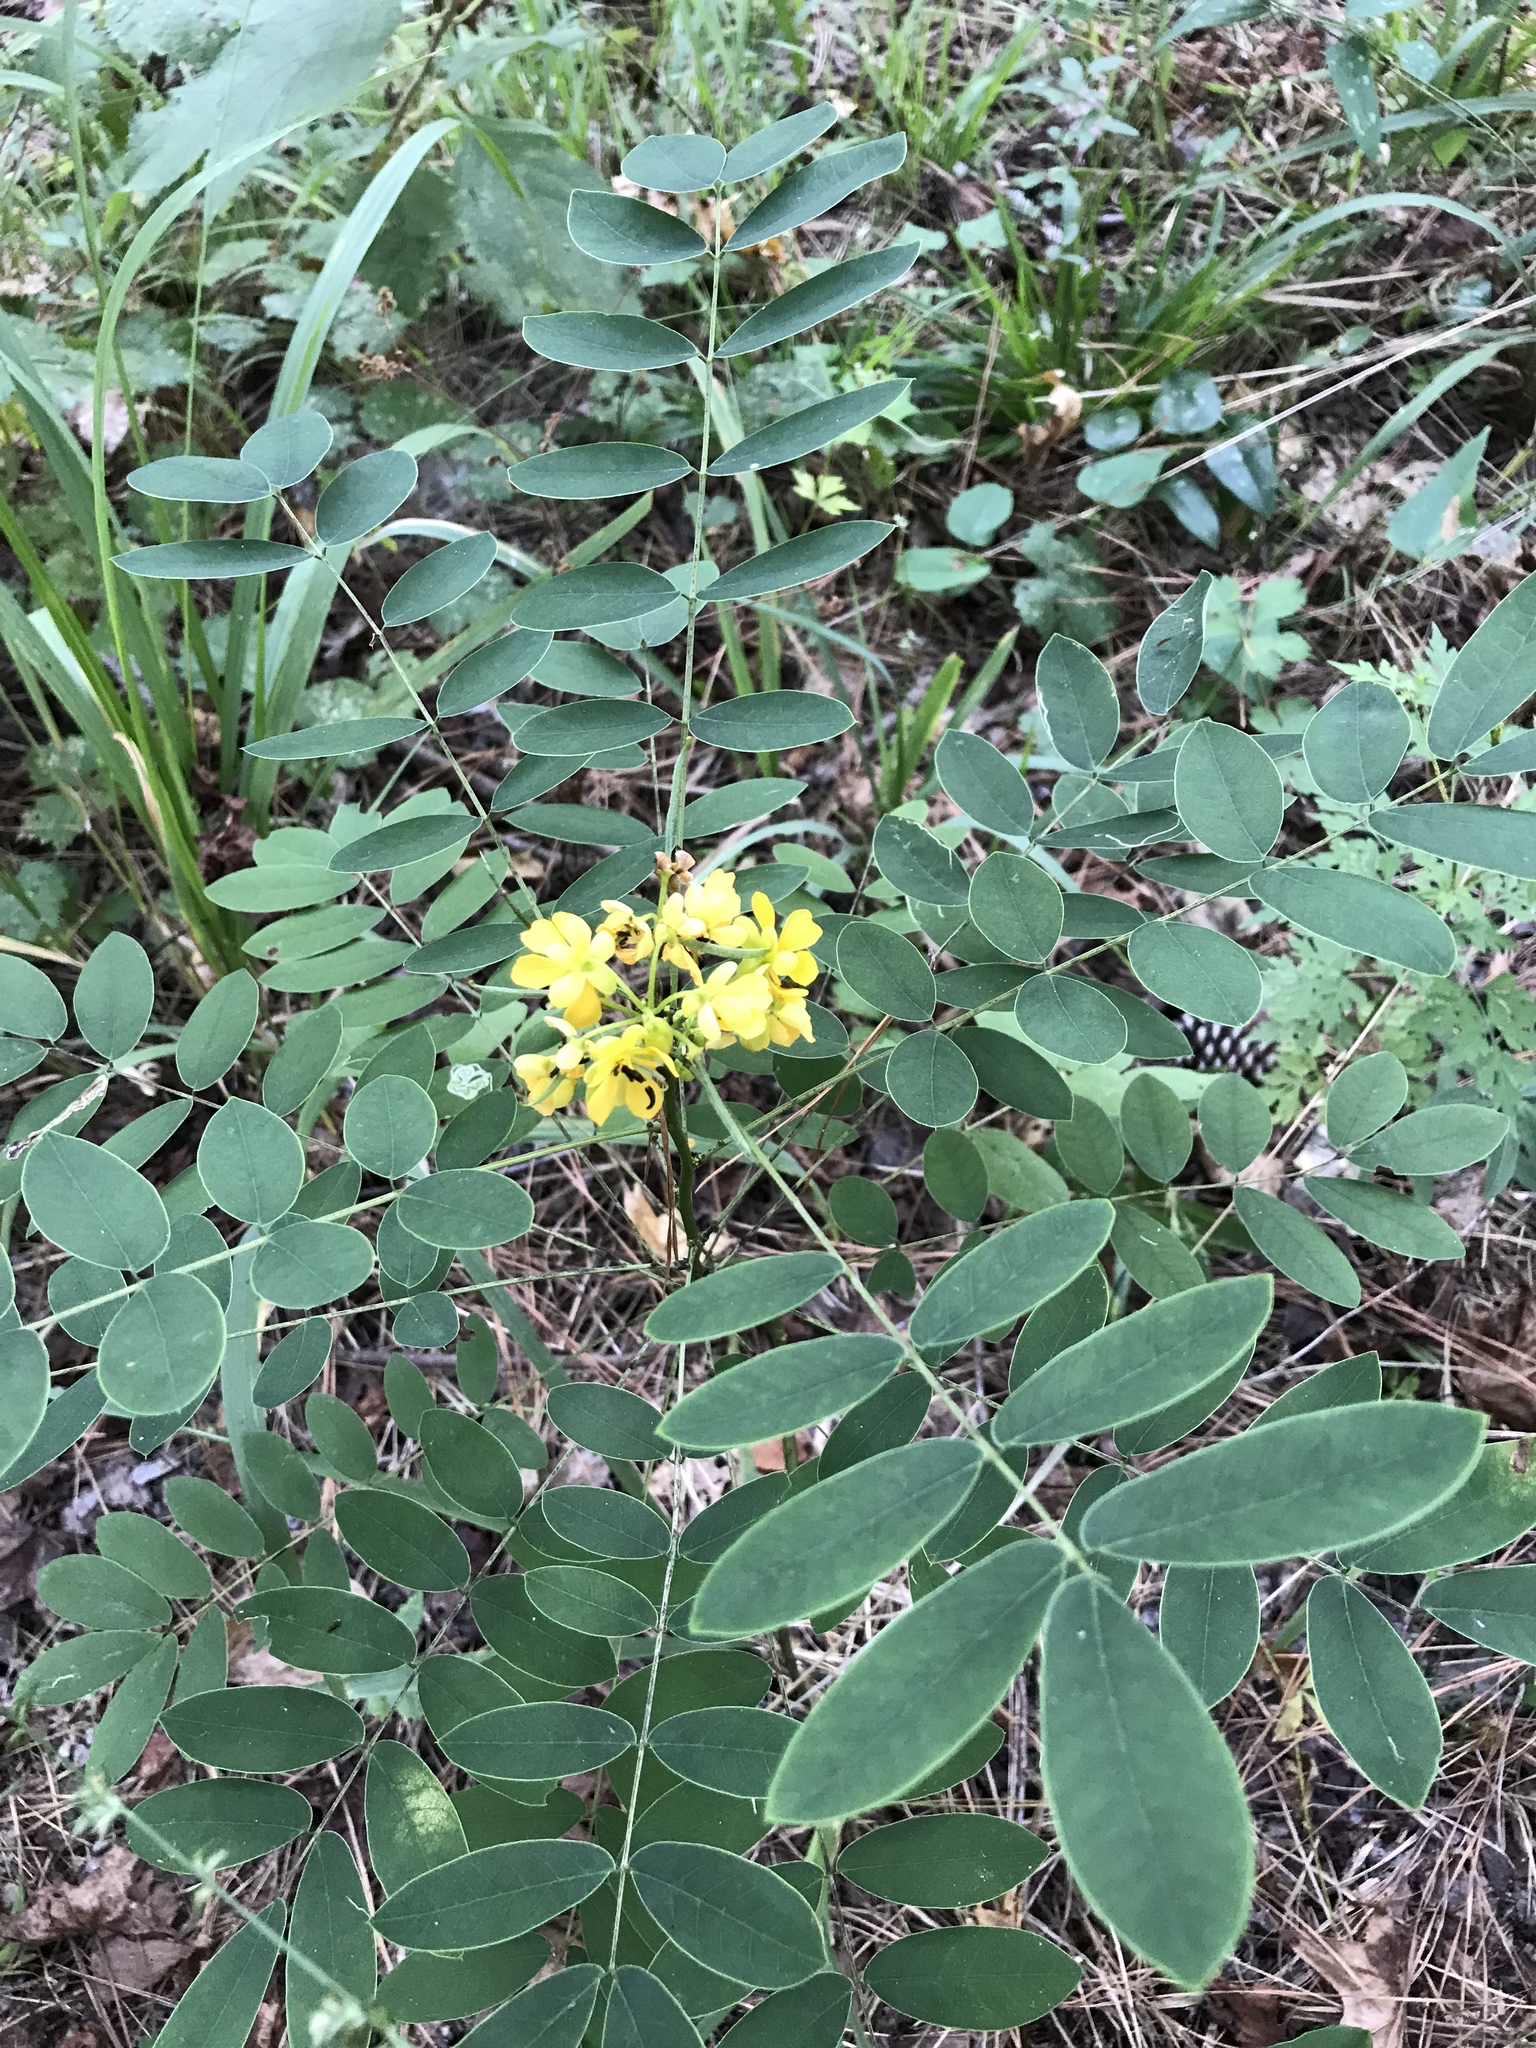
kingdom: Plantae
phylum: Tracheophyta
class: Magnoliopsida
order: Fabales
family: Fabaceae
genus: Senna
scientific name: Senna marilandica
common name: American senna
